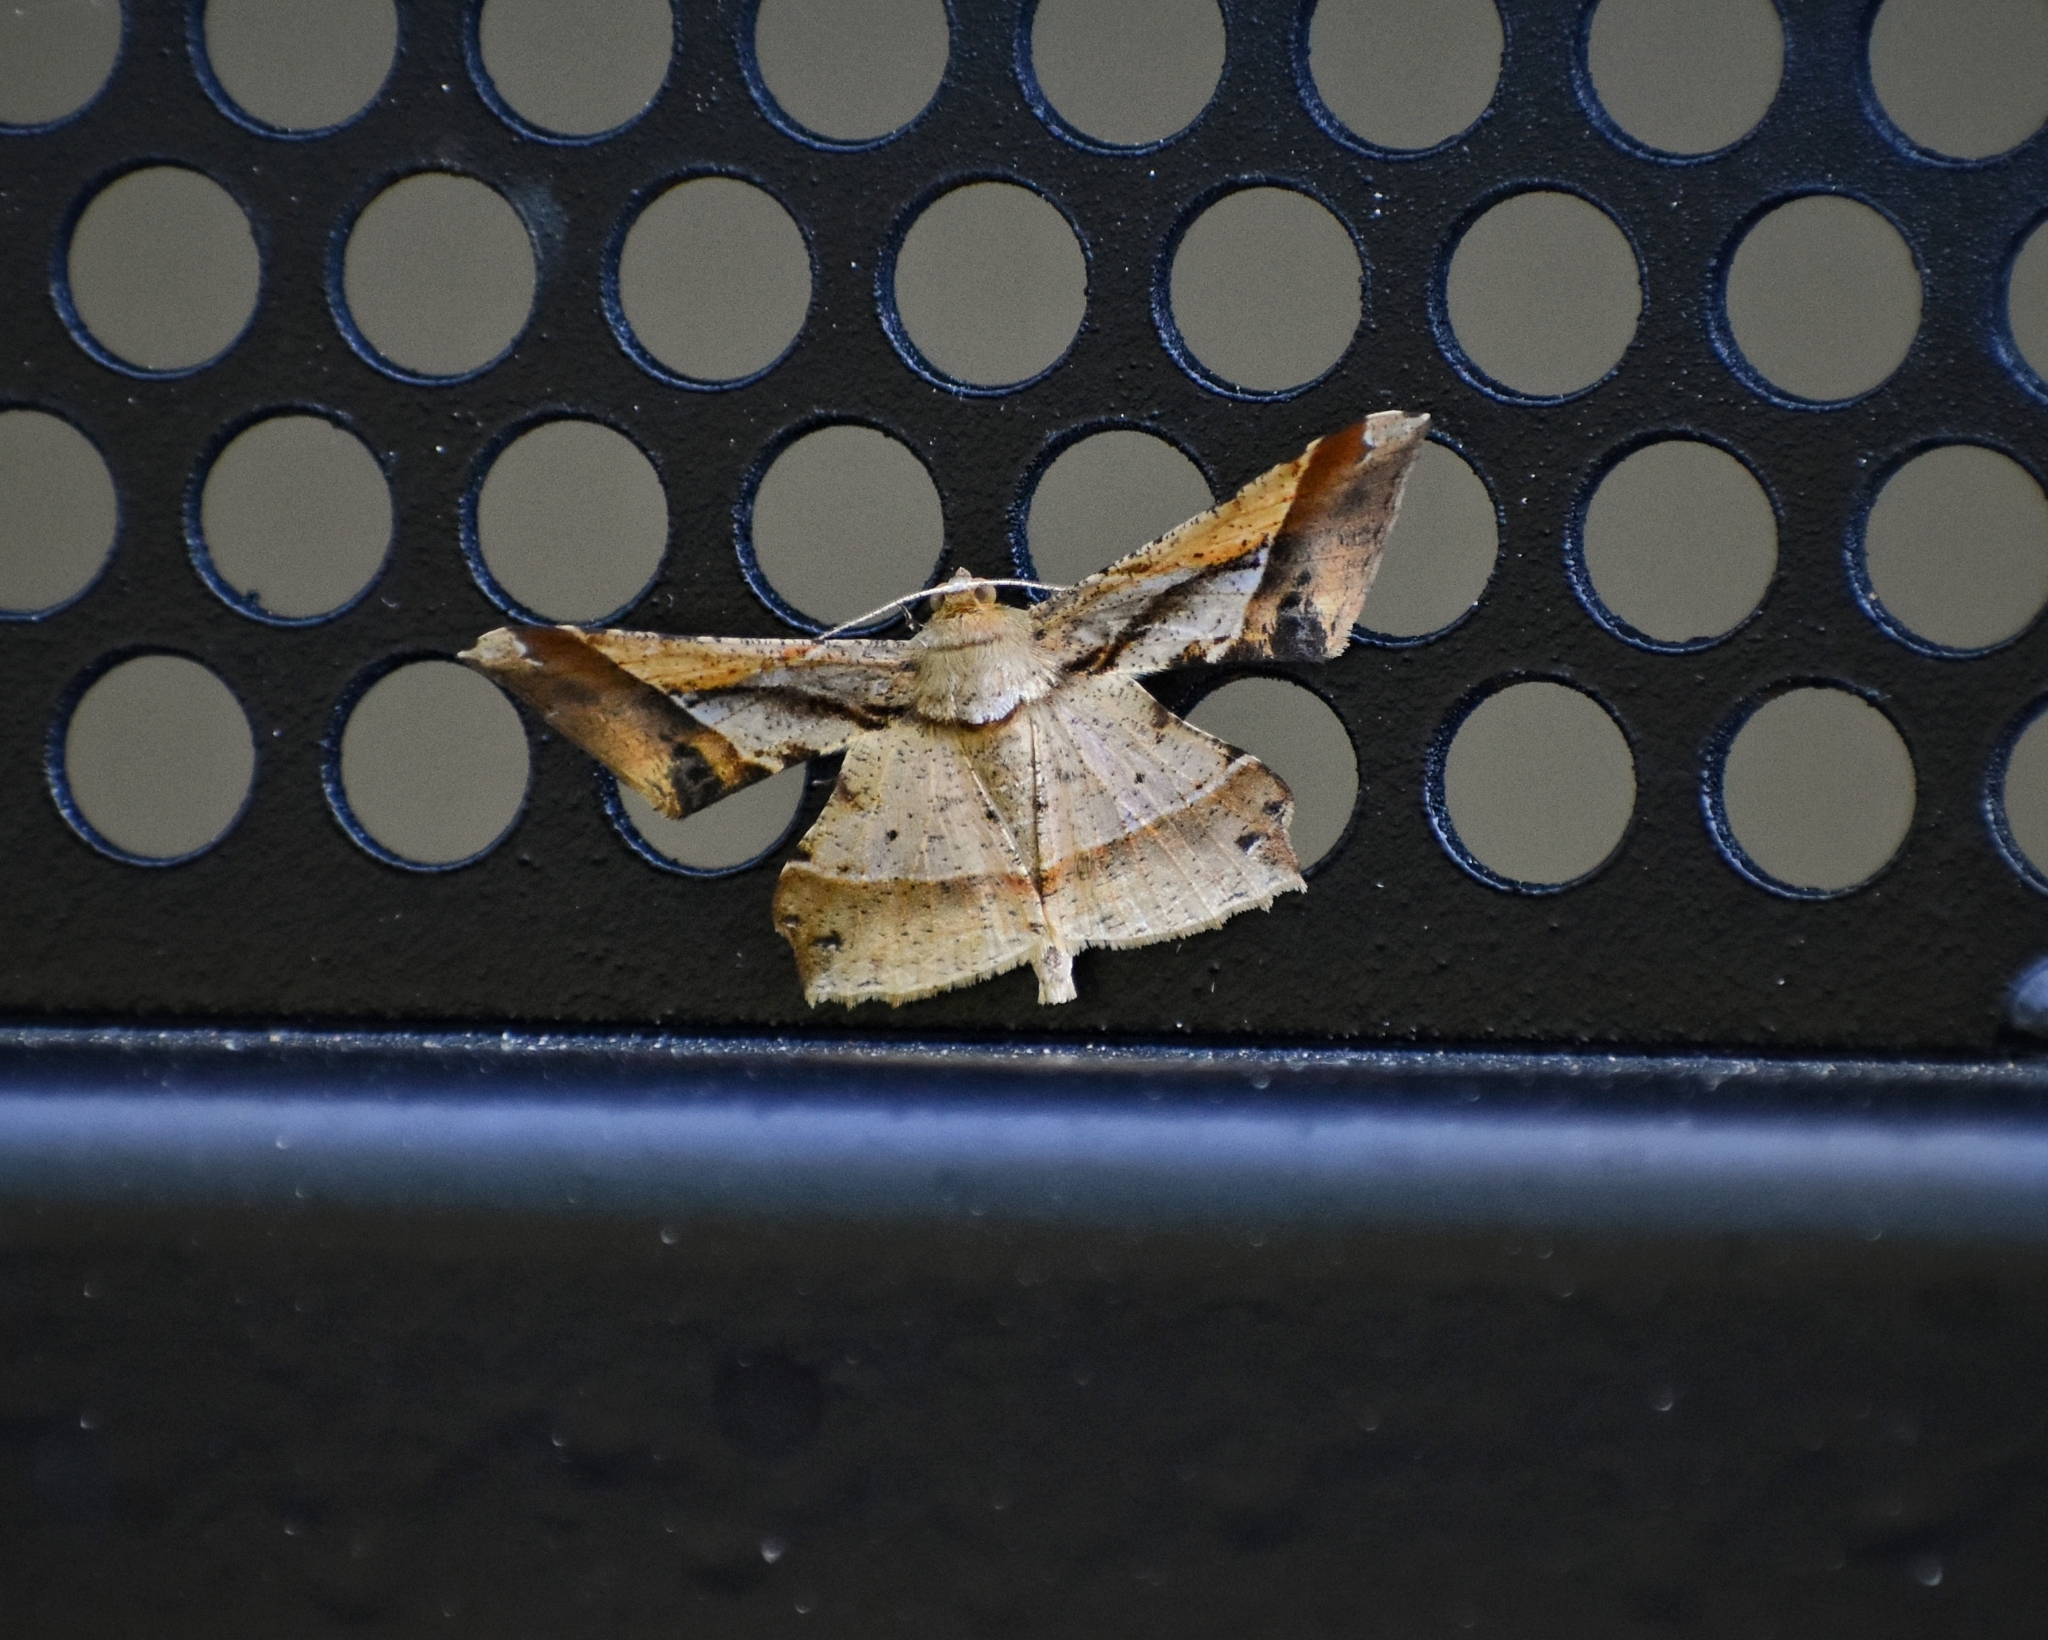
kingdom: Animalia
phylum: Arthropoda
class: Insecta
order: Lepidoptera
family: Geometridae
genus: Krananda
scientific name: Krananda latimarginaria
